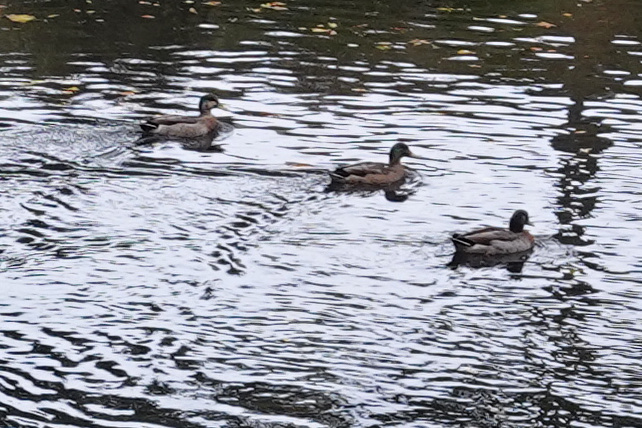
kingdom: Animalia
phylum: Chordata
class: Aves
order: Anseriformes
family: Anatidae
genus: Anas
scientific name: Anas
